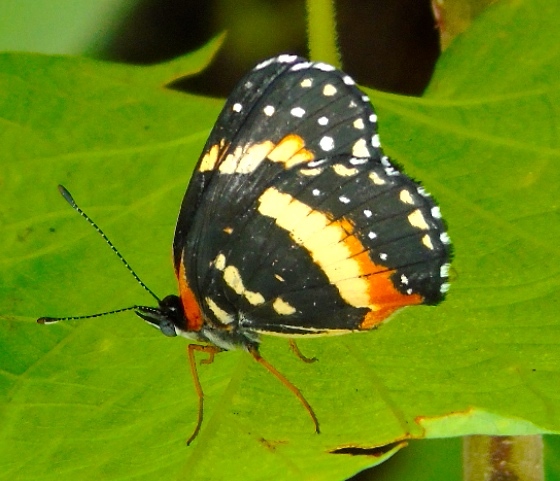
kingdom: Animalia
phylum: Arthropoda
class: Insecta
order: Lepidoptera
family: Nymphalidae
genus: Chlosyne
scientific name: Chlosyne lacinia
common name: Bordered patch
